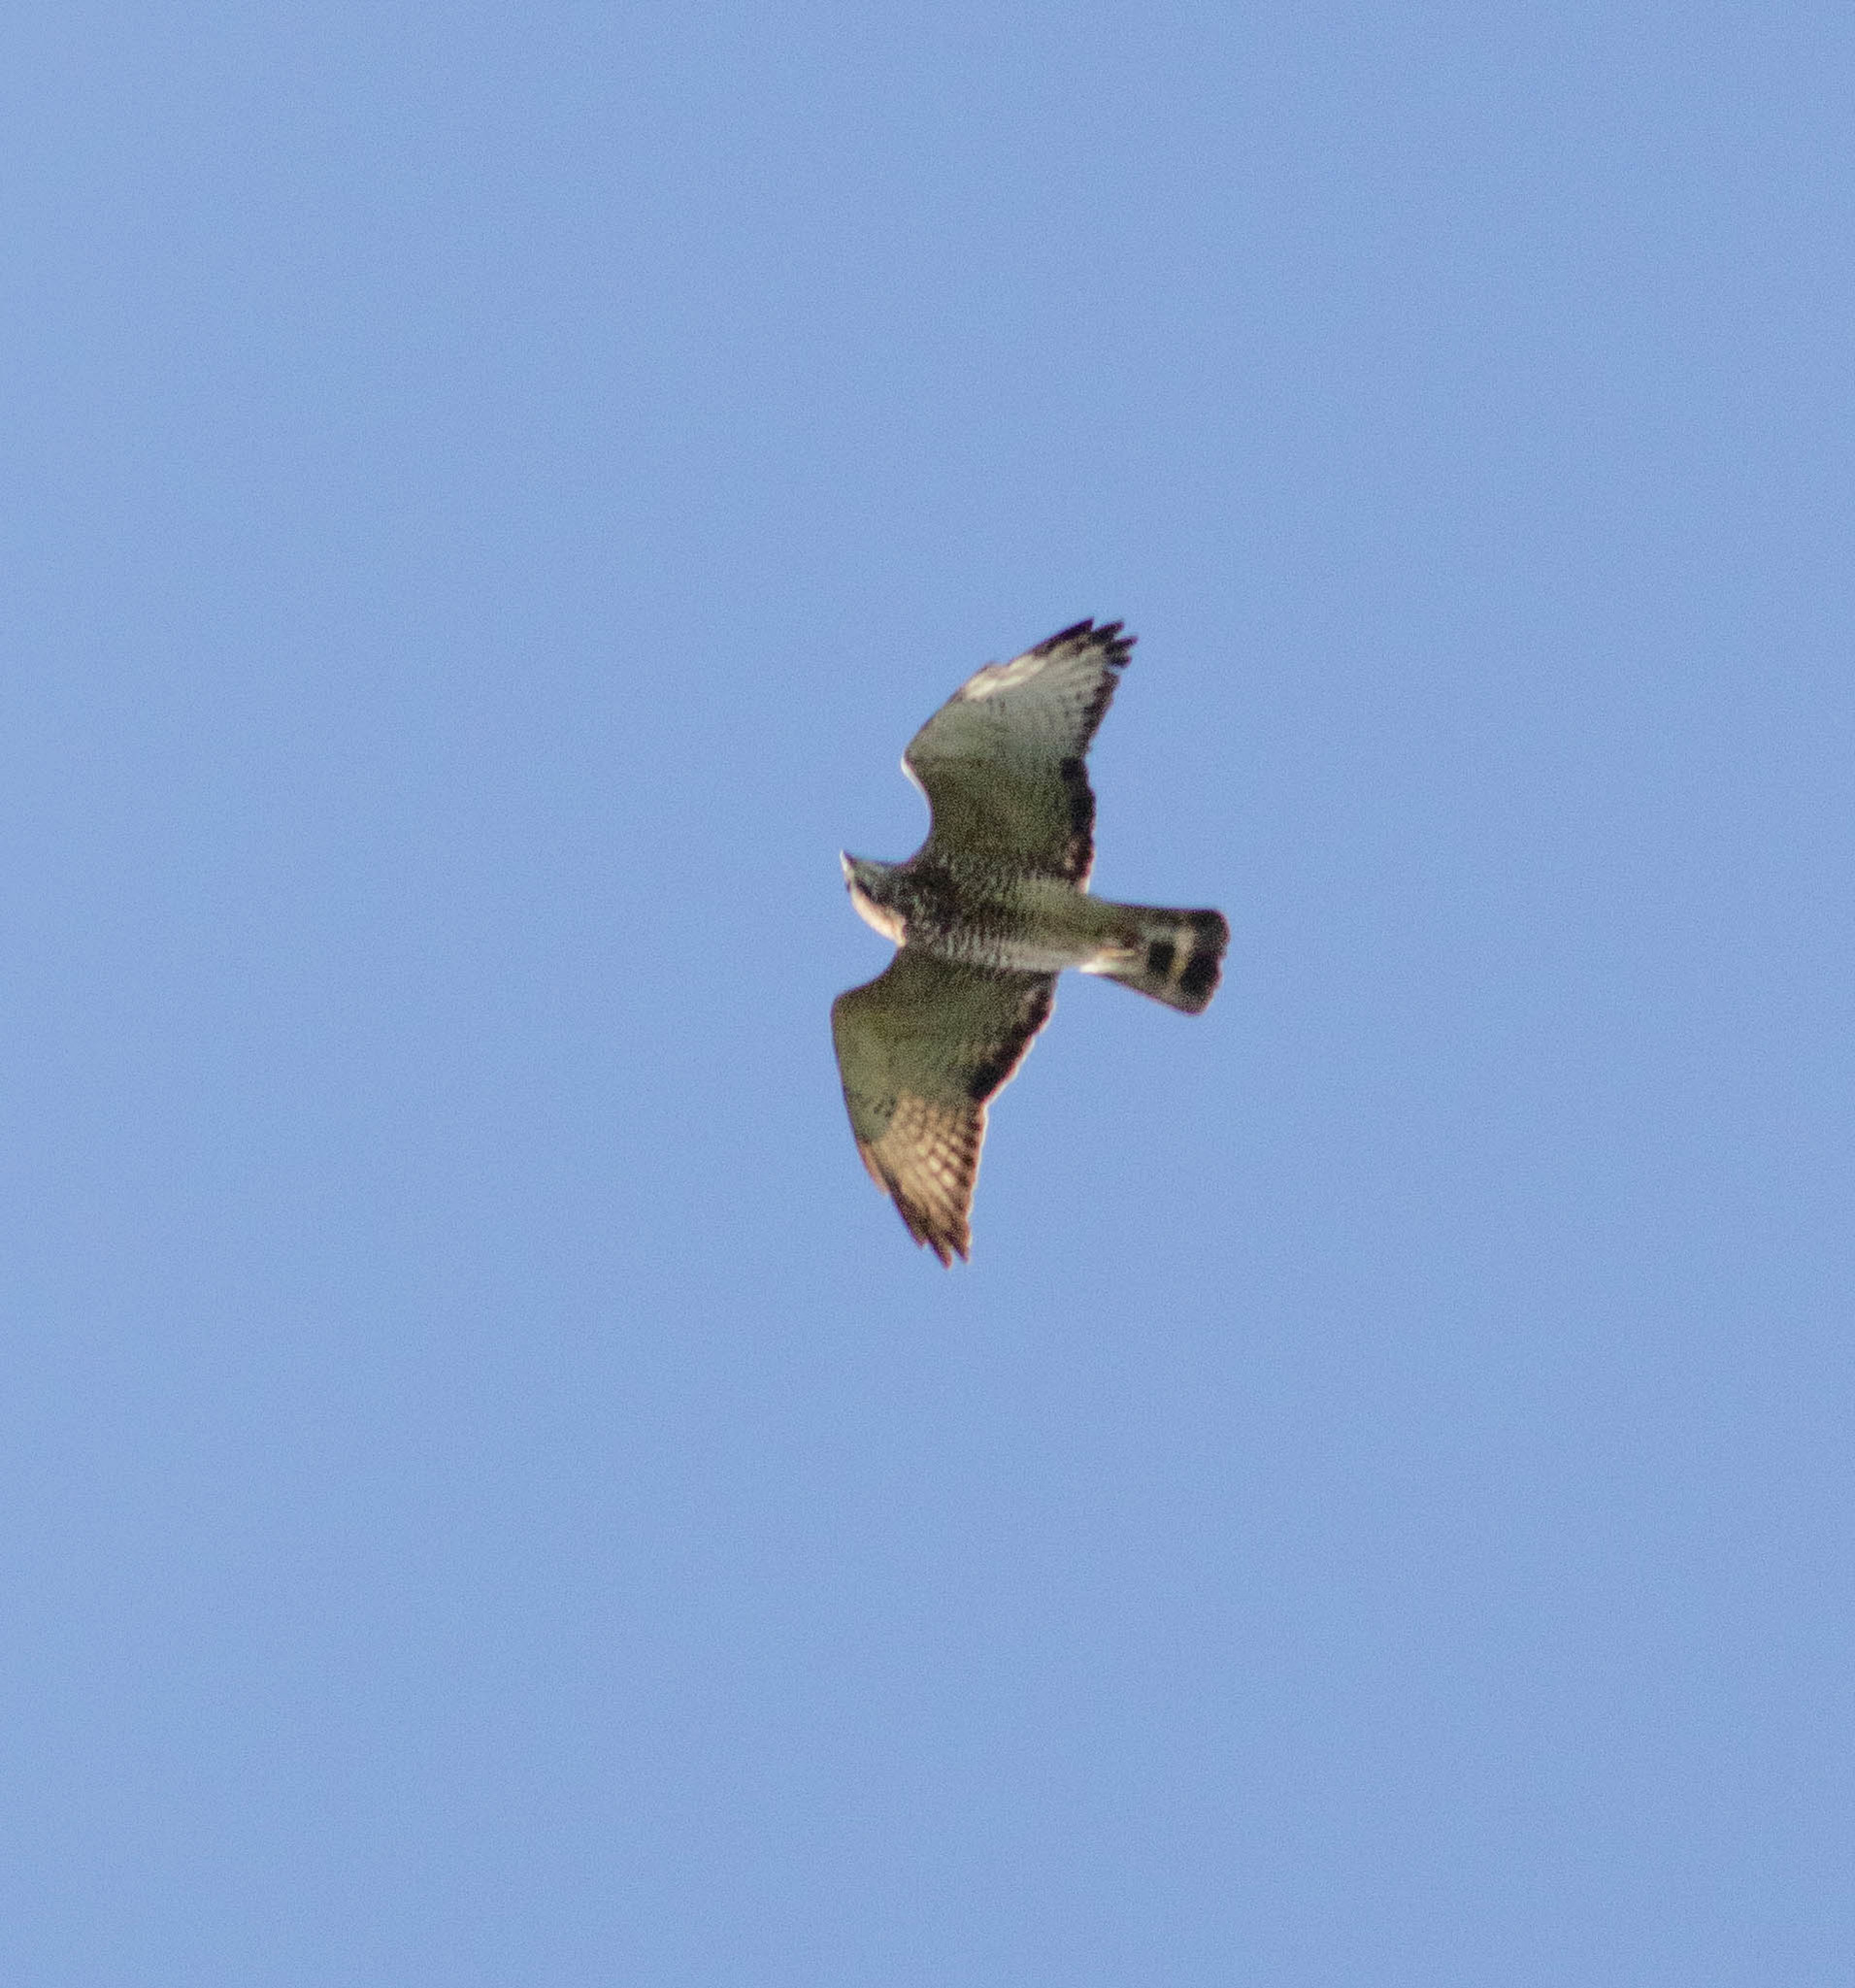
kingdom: Animalia
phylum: Chordata
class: Aves
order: Accipitriformes
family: Accipitridae
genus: Buteo
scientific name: Buteo platypterus
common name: Broad-winged hawk
